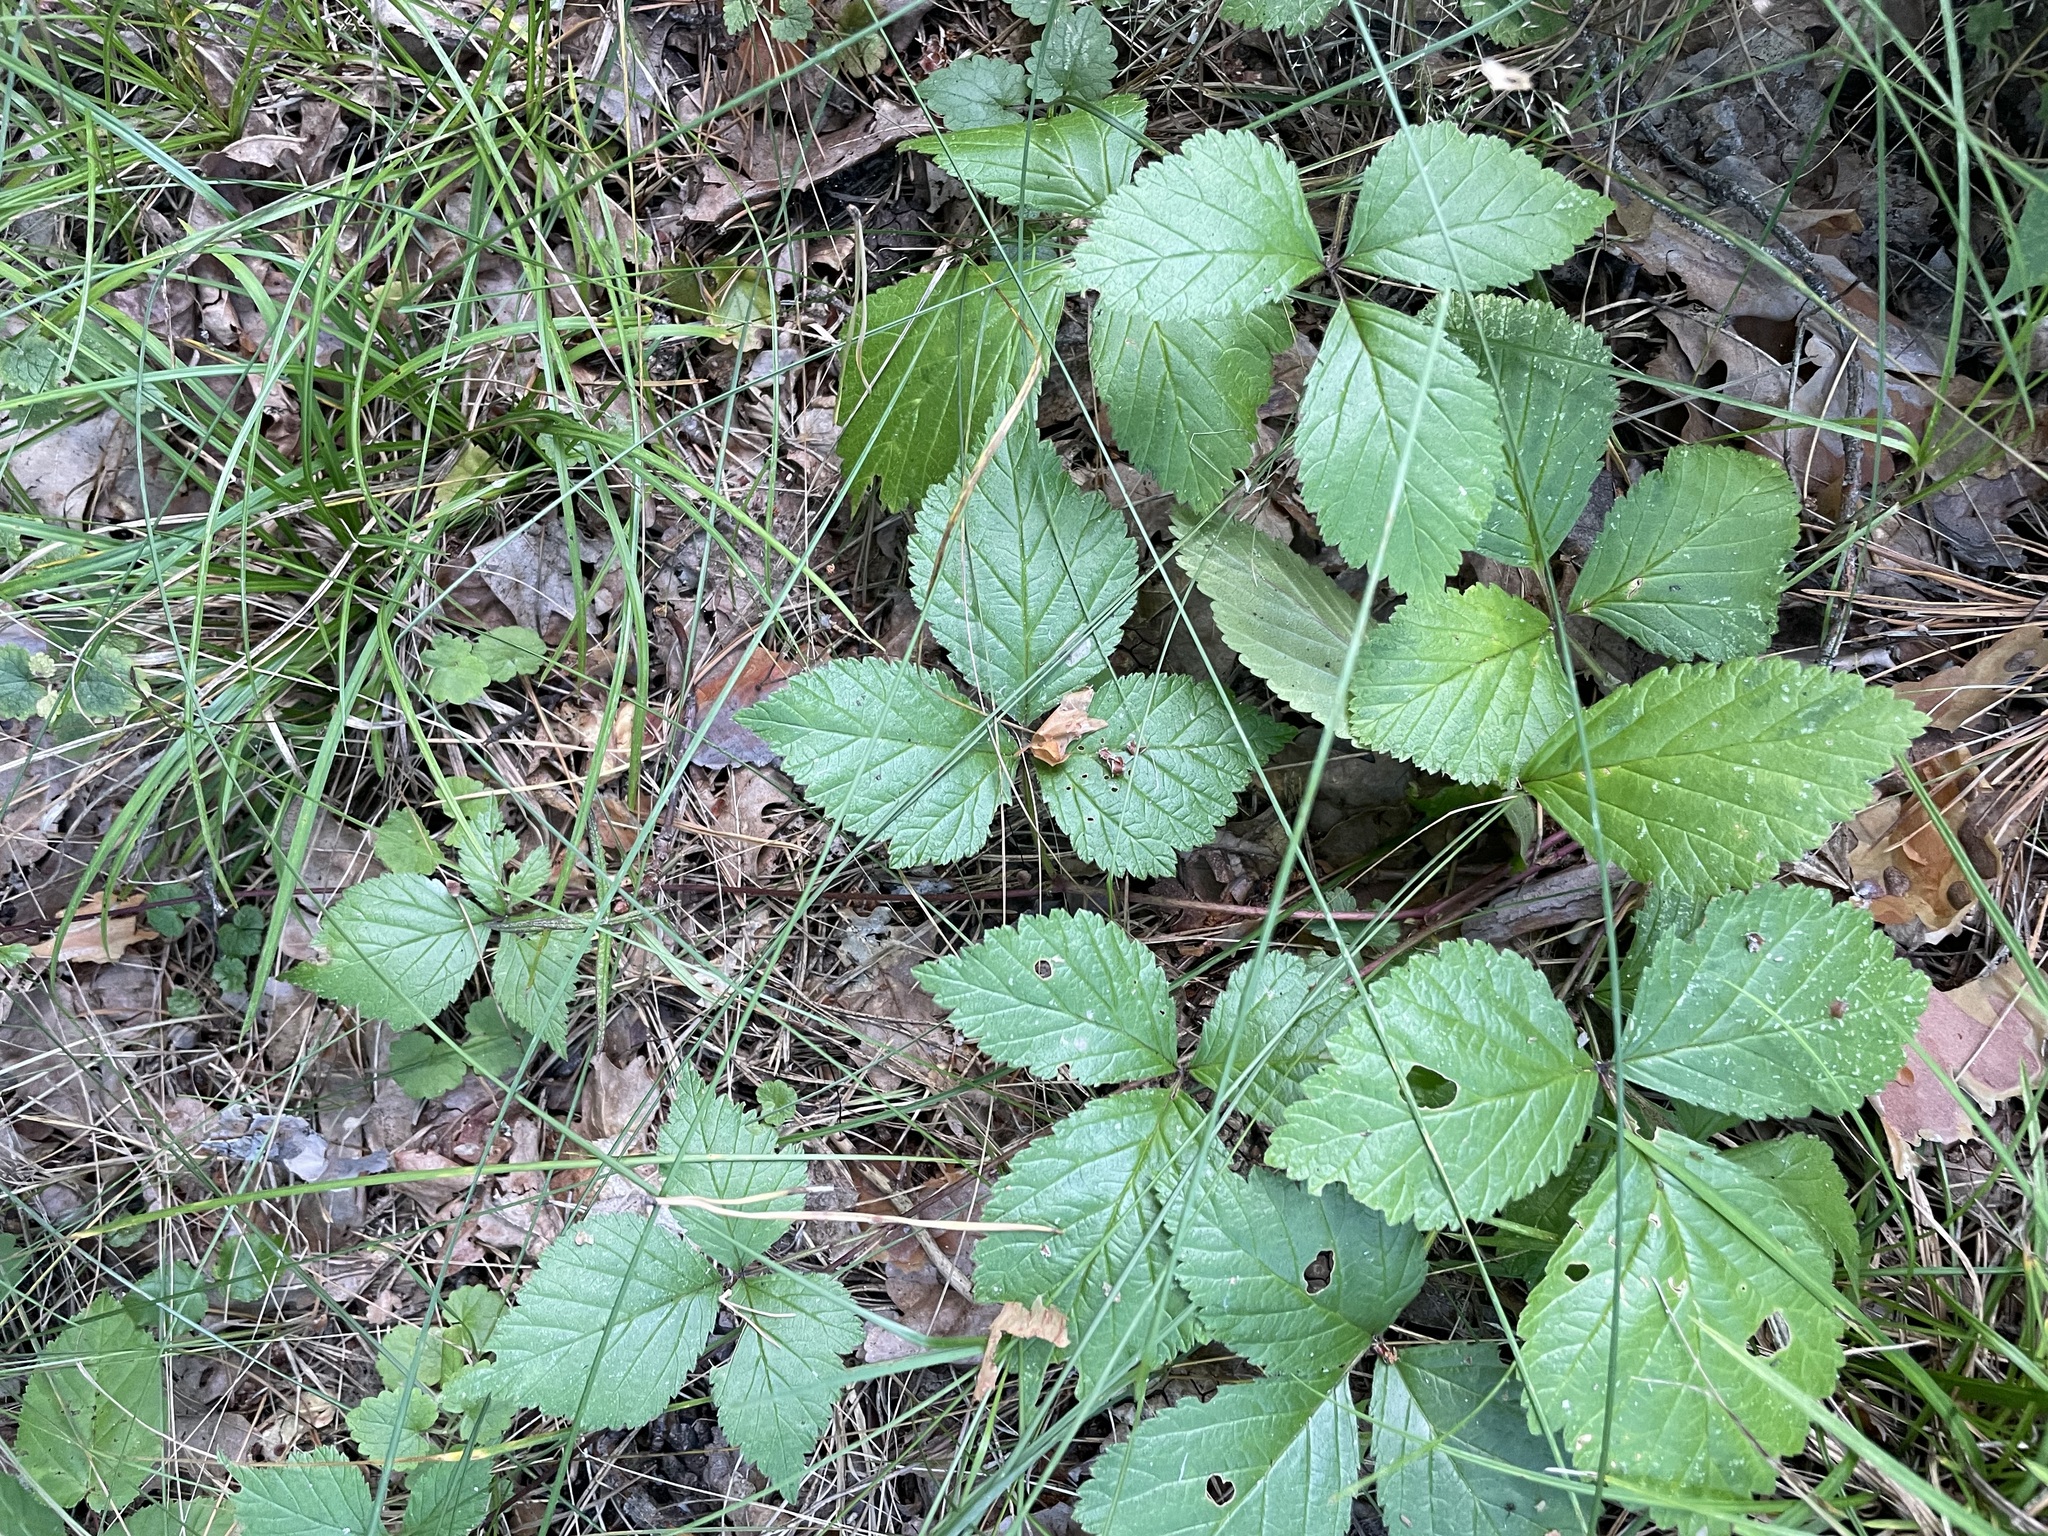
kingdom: Plantae
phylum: Tracheophyta
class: Magnoliopsida
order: Rosales
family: Rosaceae
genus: Rubus
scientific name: Rubus saxatilis
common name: Stone bramble
